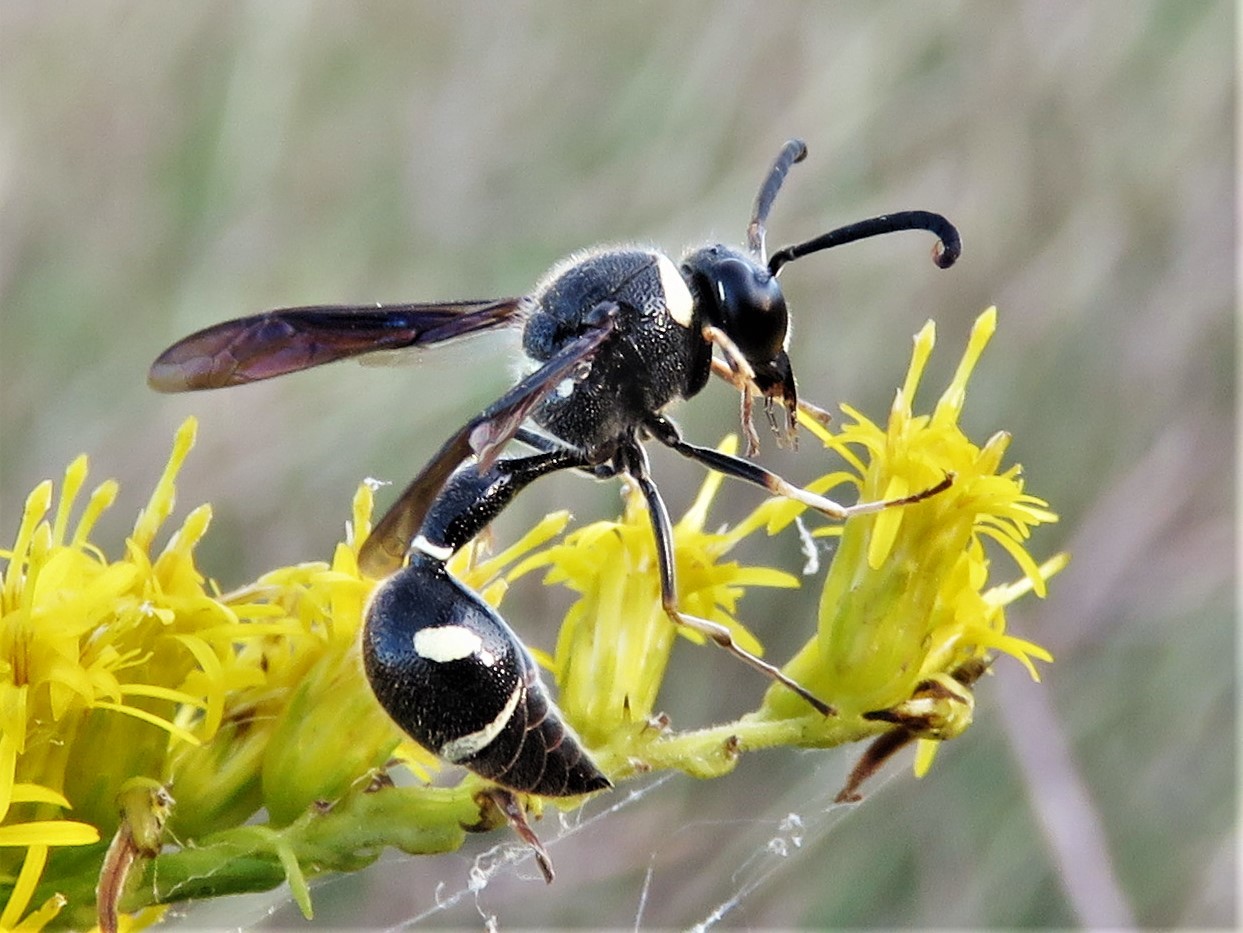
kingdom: Animalia
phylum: Arthropoda
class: Insecta
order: Hymenoptera
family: Vespidae
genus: Eumenes
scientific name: Eumenes fraternus
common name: Fraternal potter wasp
